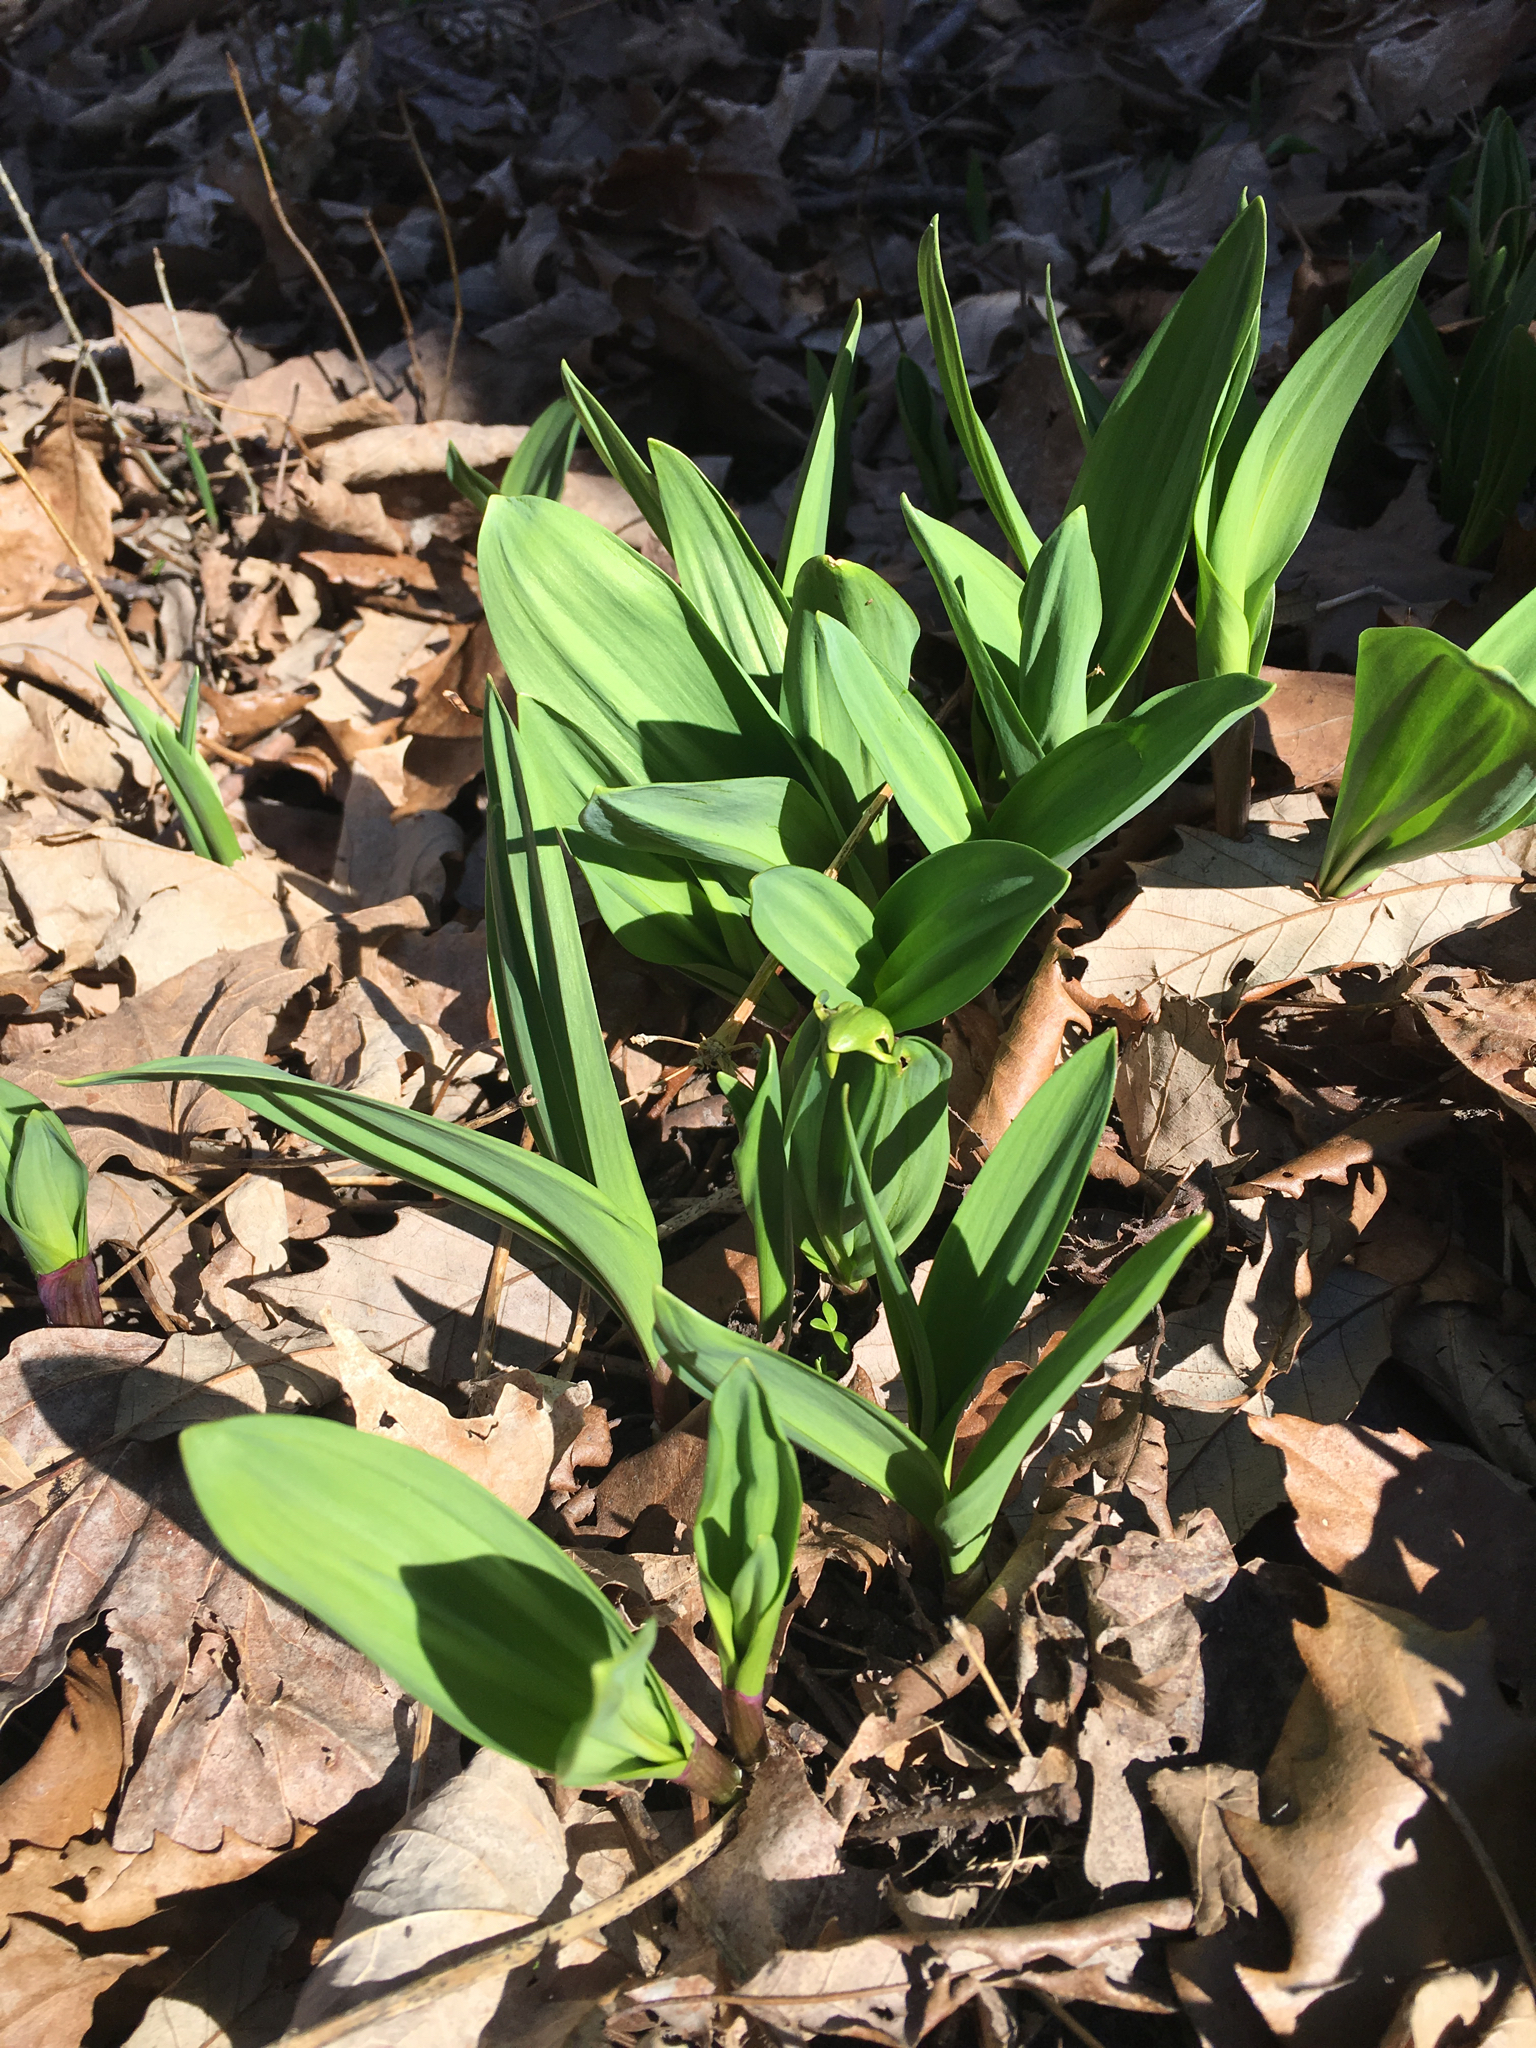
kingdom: Plantae
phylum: Tracheophyta
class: Liliopsida
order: Asparagales
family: Amaryllidaceae
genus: Allium
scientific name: Allium tricoccum
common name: Ramp
